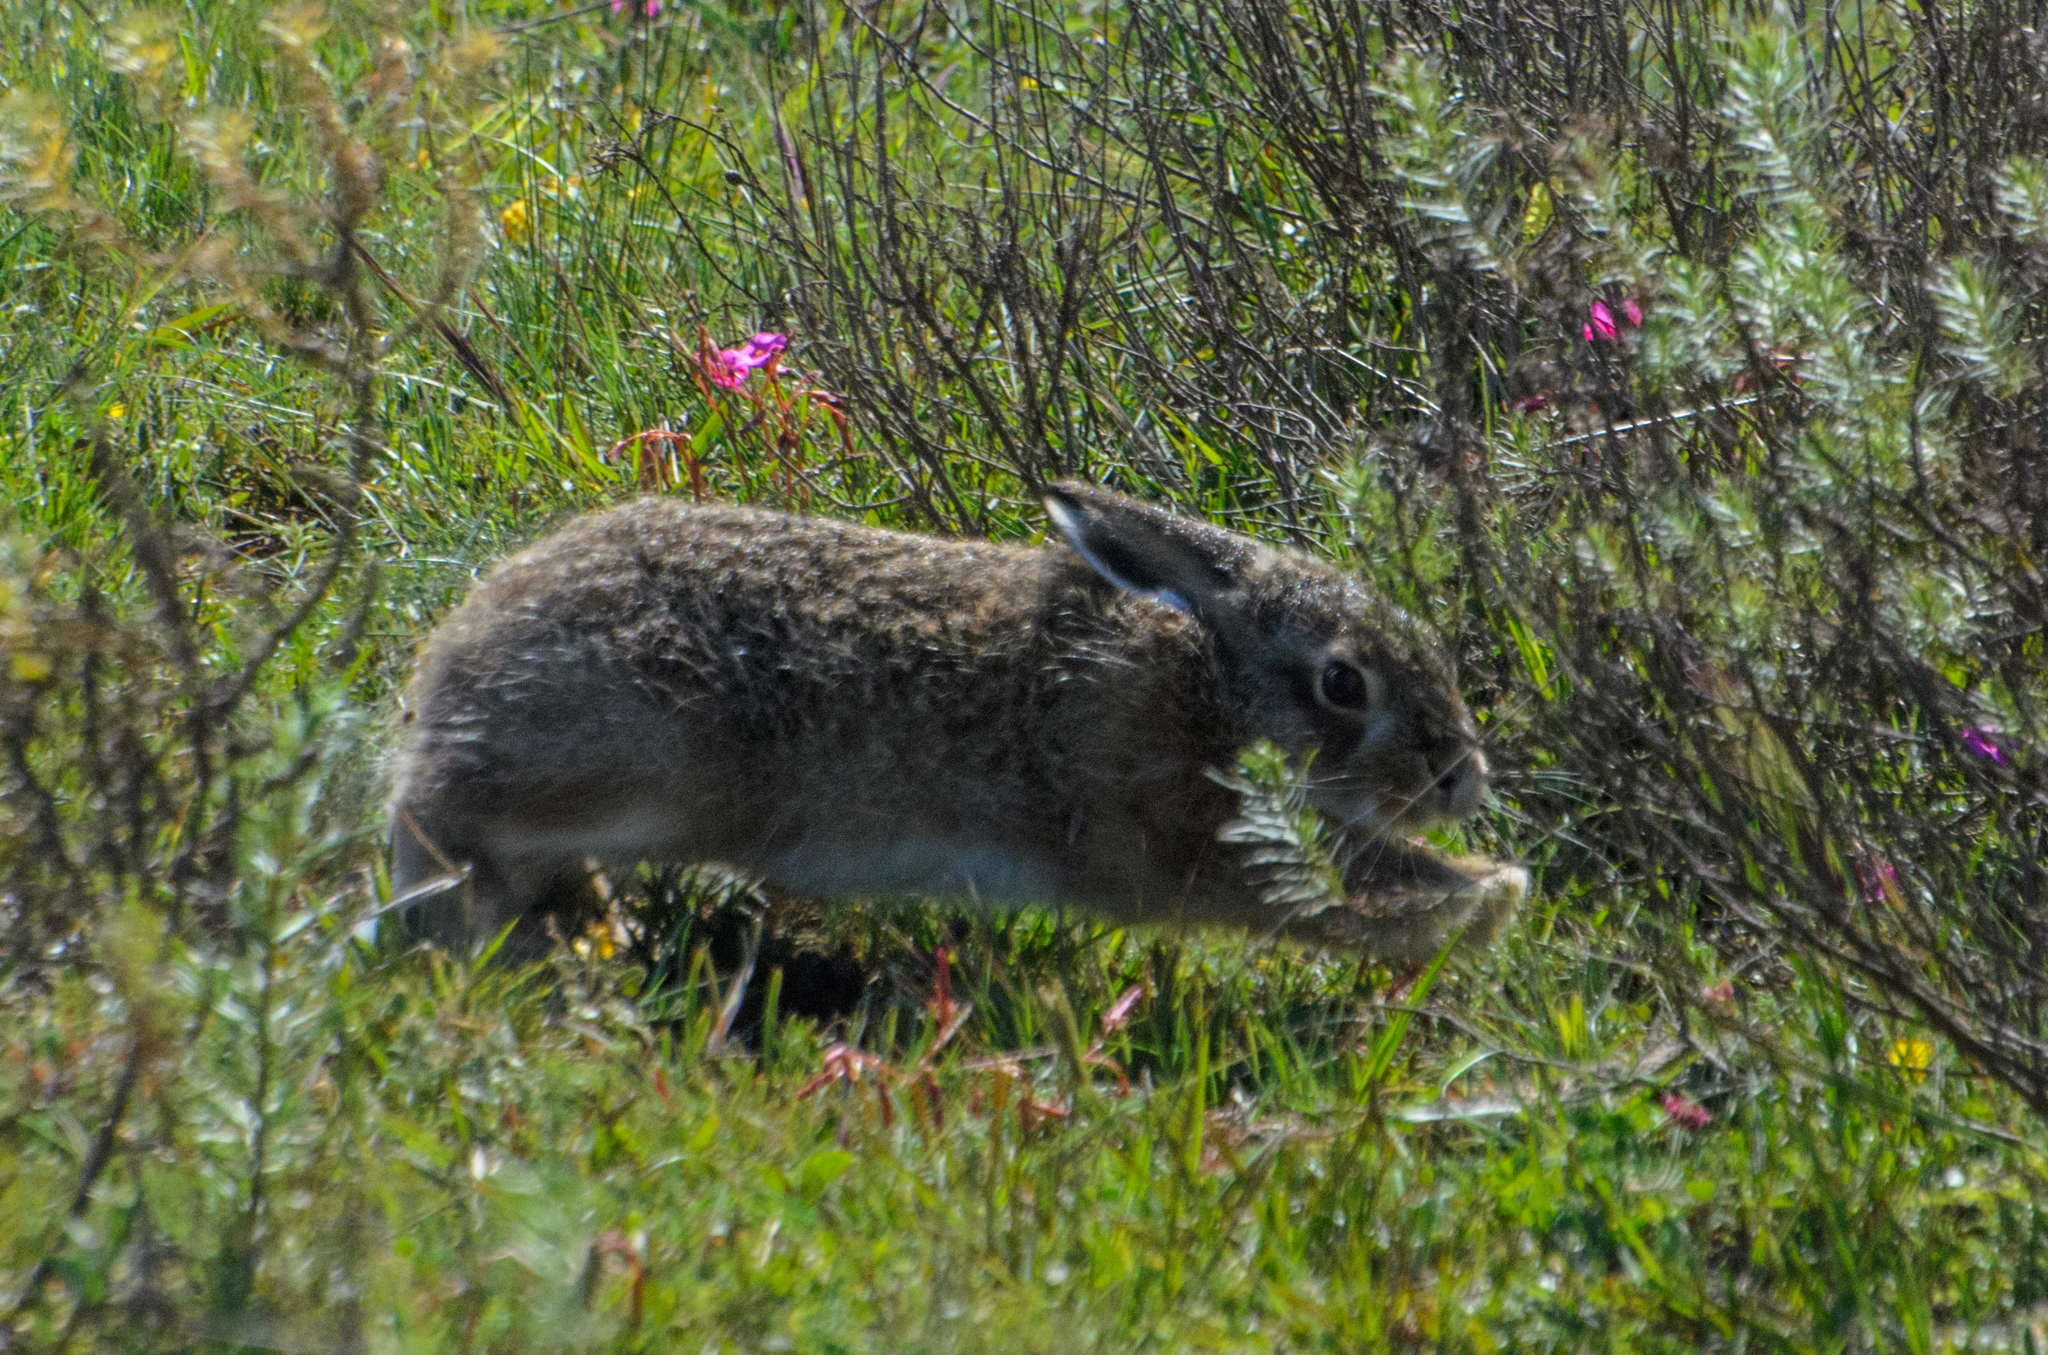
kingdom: Animalia
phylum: Chordata
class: Mammalia
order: Lagomorpha
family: Leporidae
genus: Lepus
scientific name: Lepus europaeus
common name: European hare
